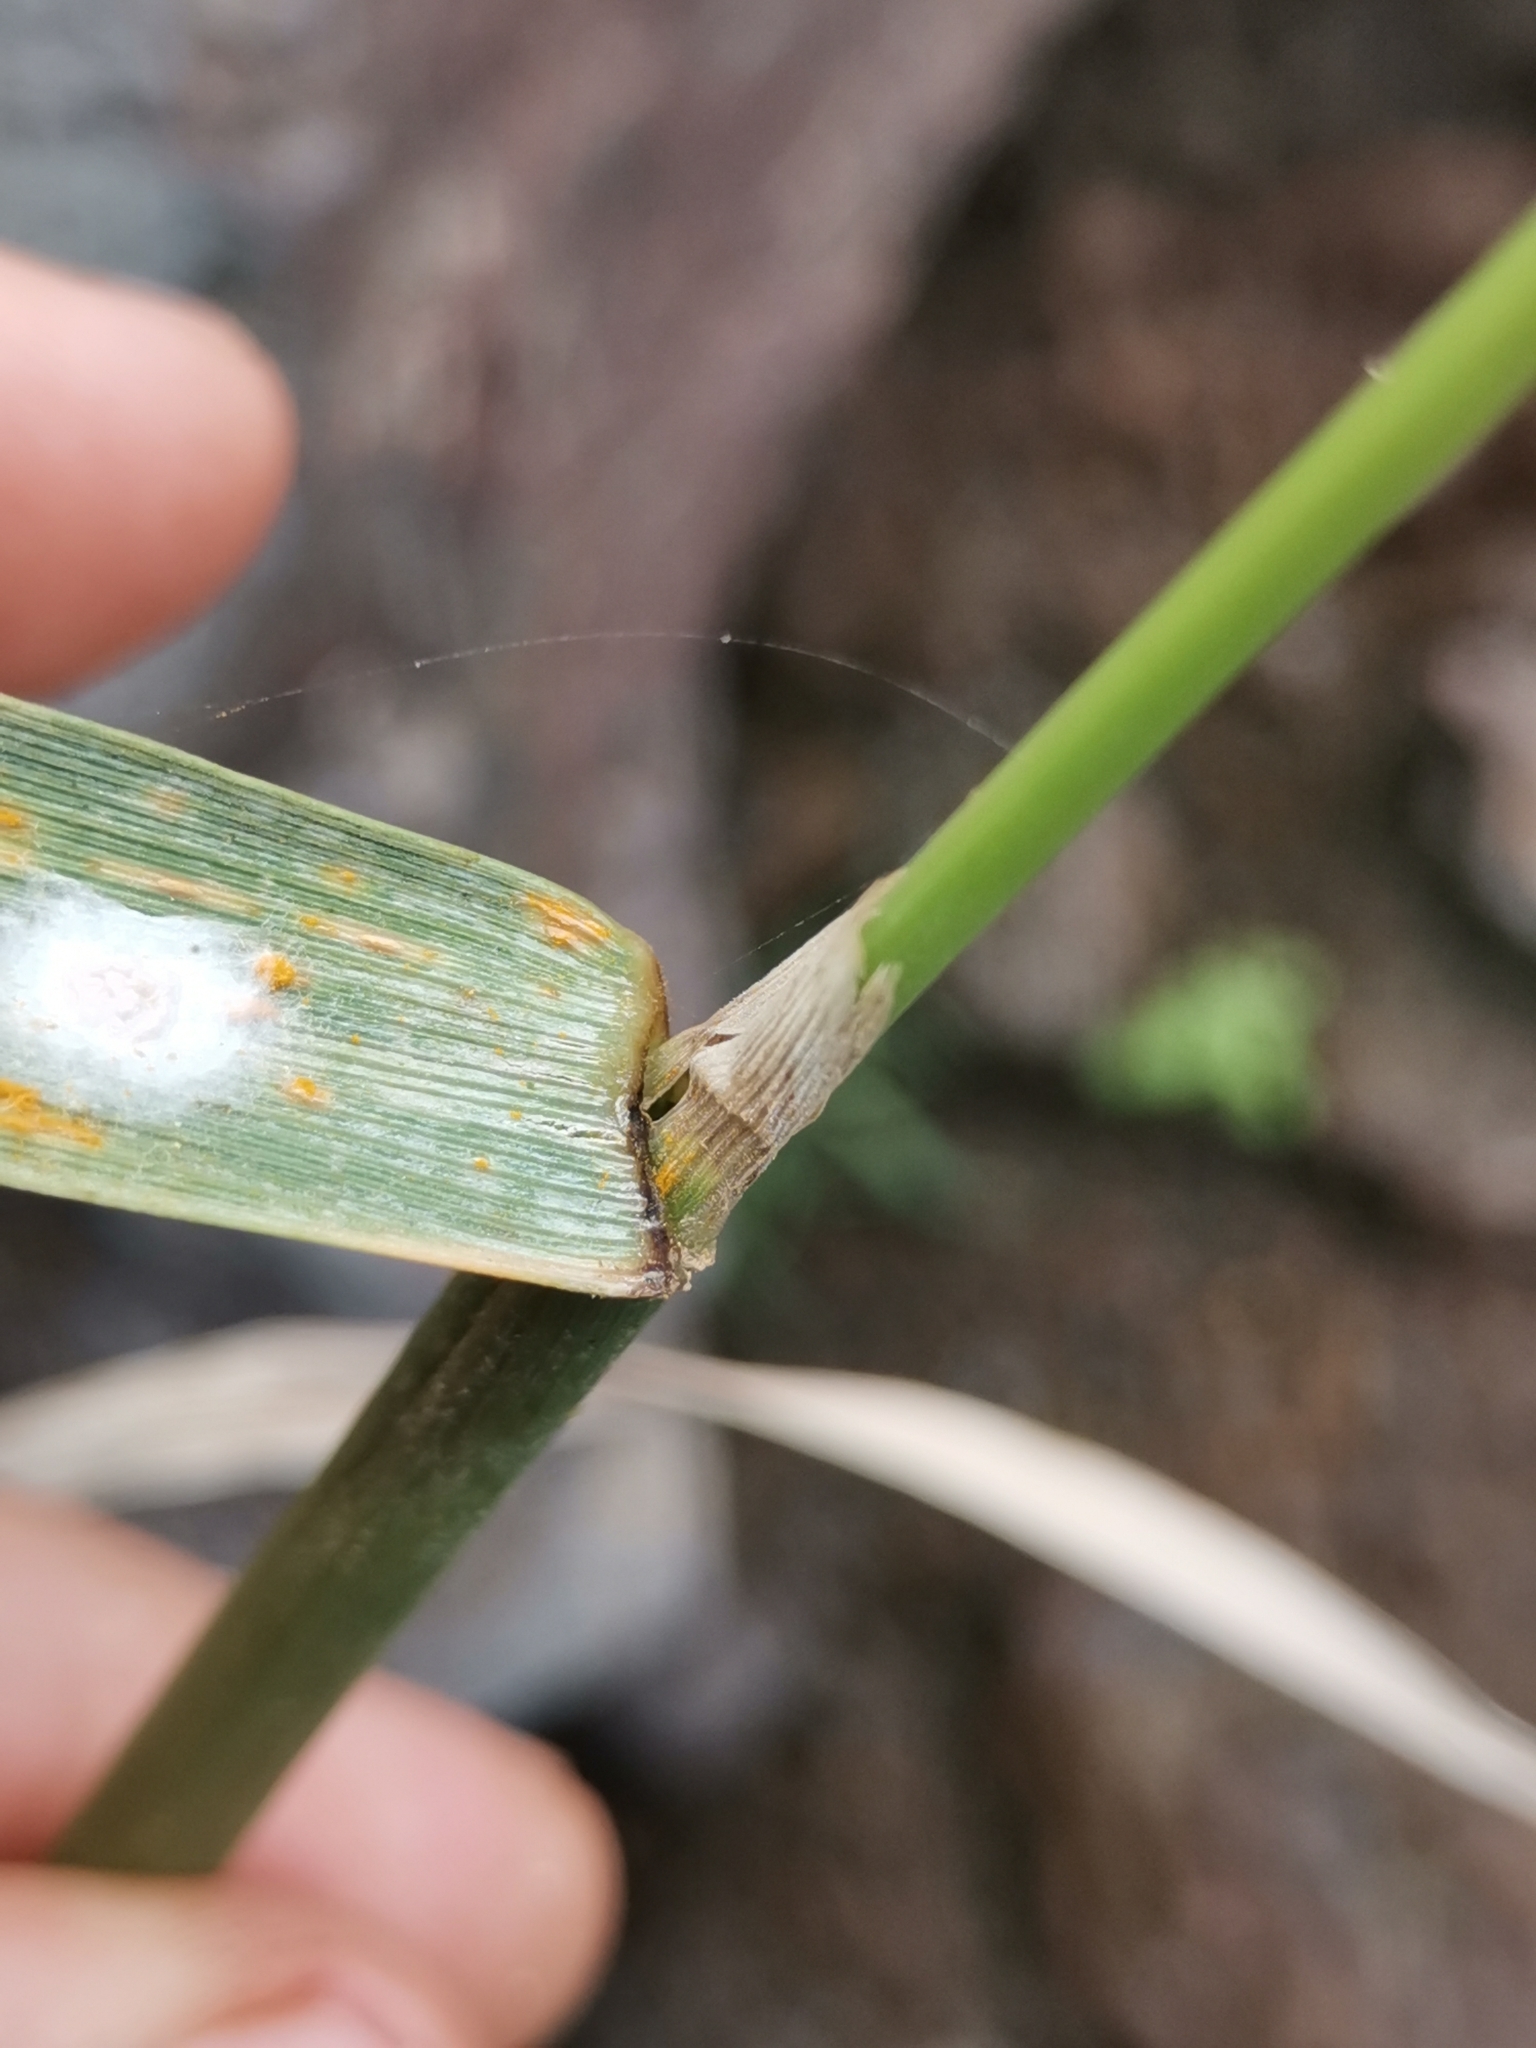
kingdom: Plantae
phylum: Tracheophyta
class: Liliopsida
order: Poales
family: Poaceae
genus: Polypogon
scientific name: Polypogon monspeliensis
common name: Annual rabbitsfoot grass
